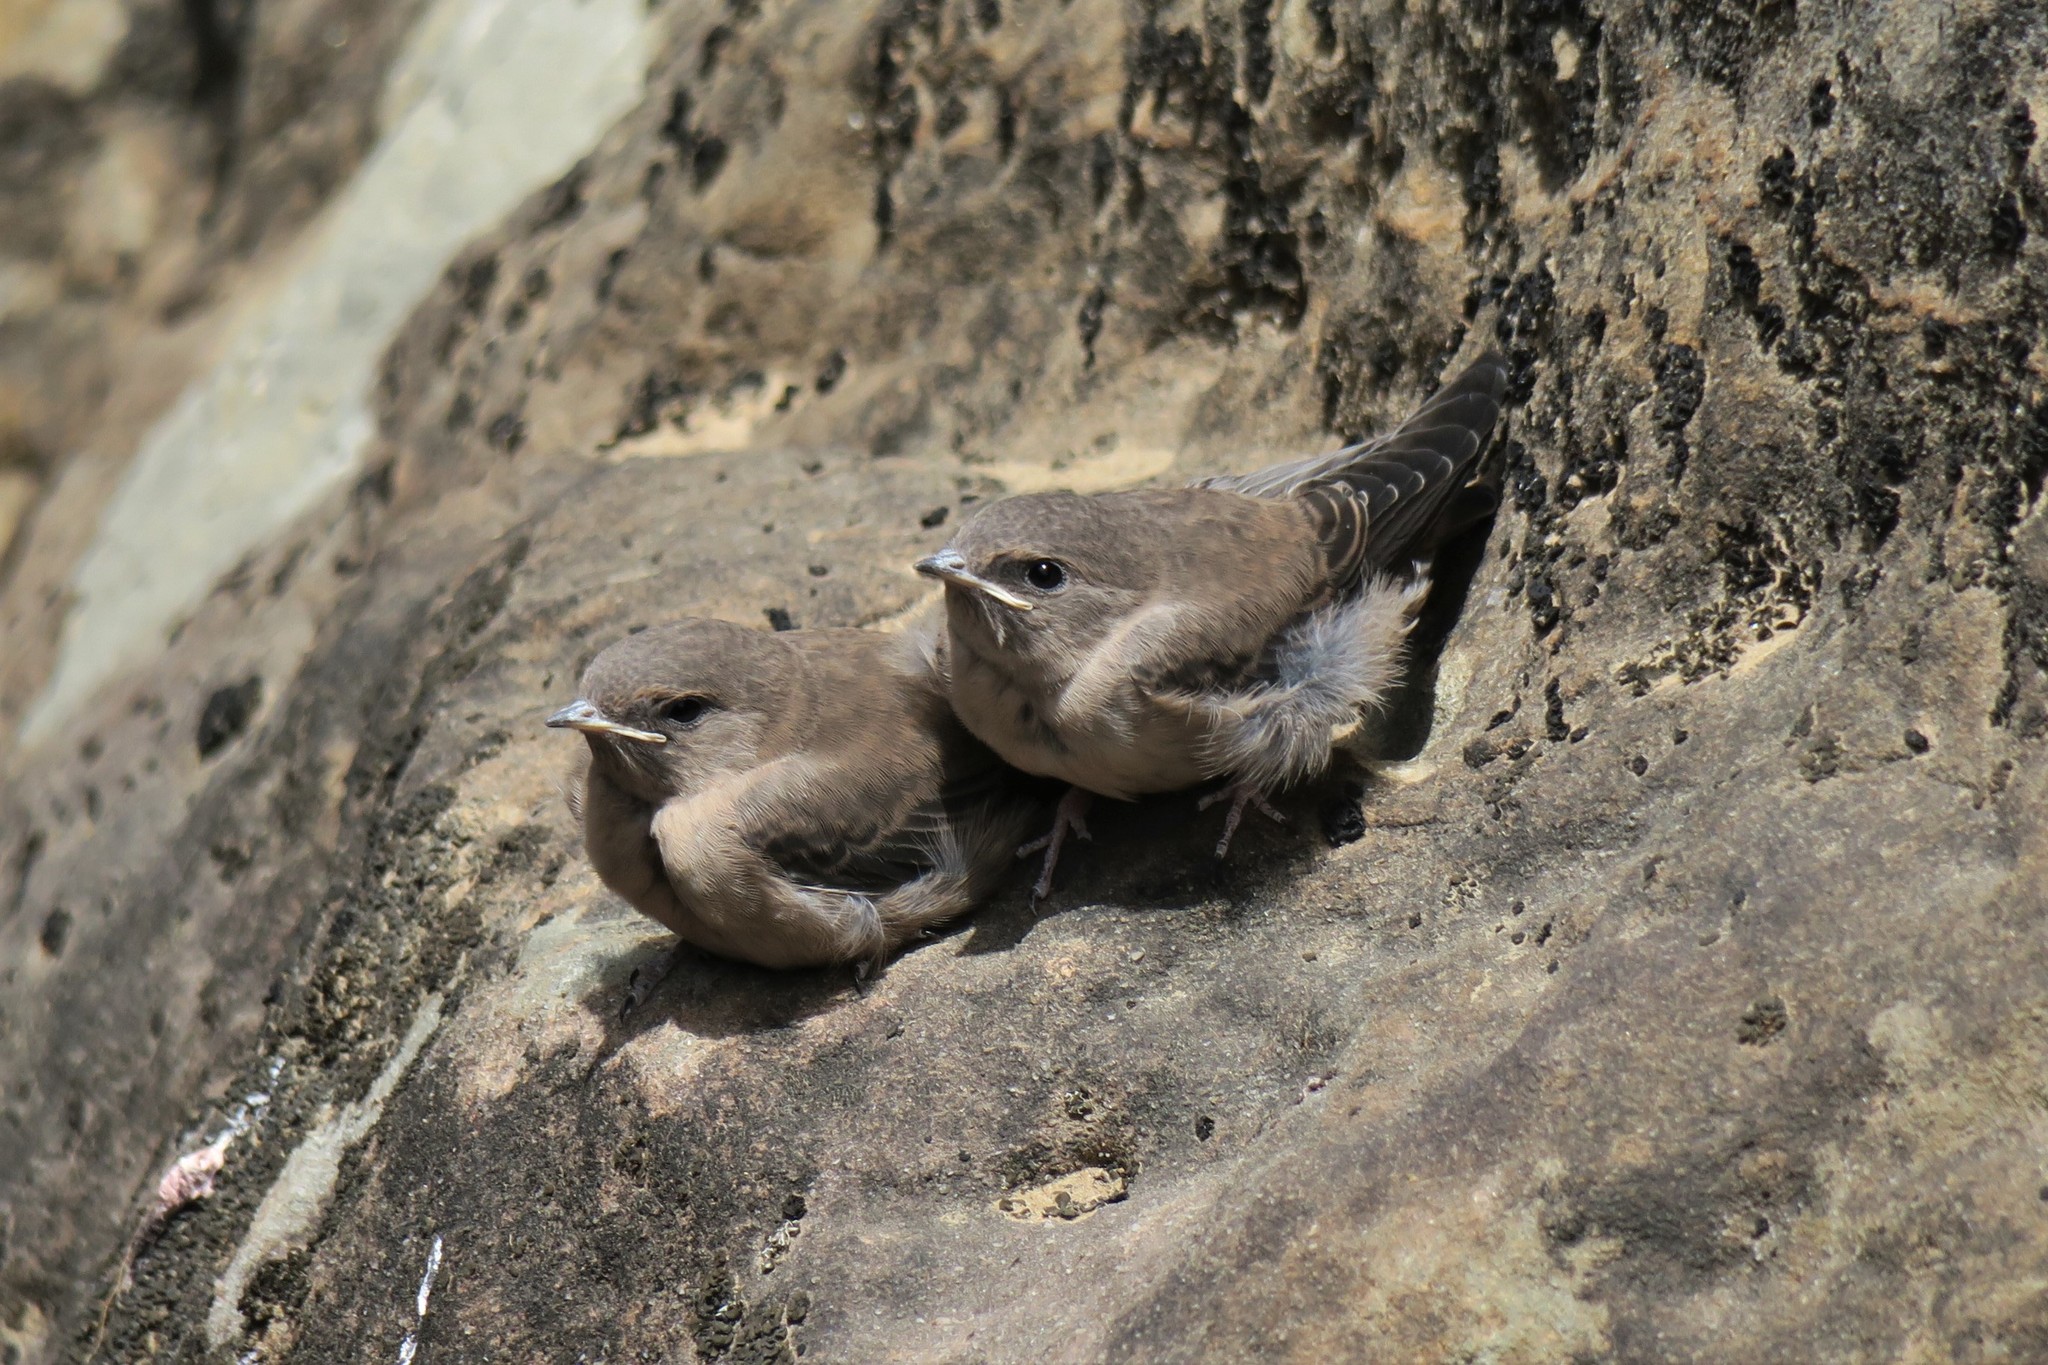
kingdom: Animalia
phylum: Chordata
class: Aves
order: Passeriformes
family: Hirundinidae
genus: Ptyonoprogne
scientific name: Ptyonoprogne rupestris
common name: Eurasian crag martin
